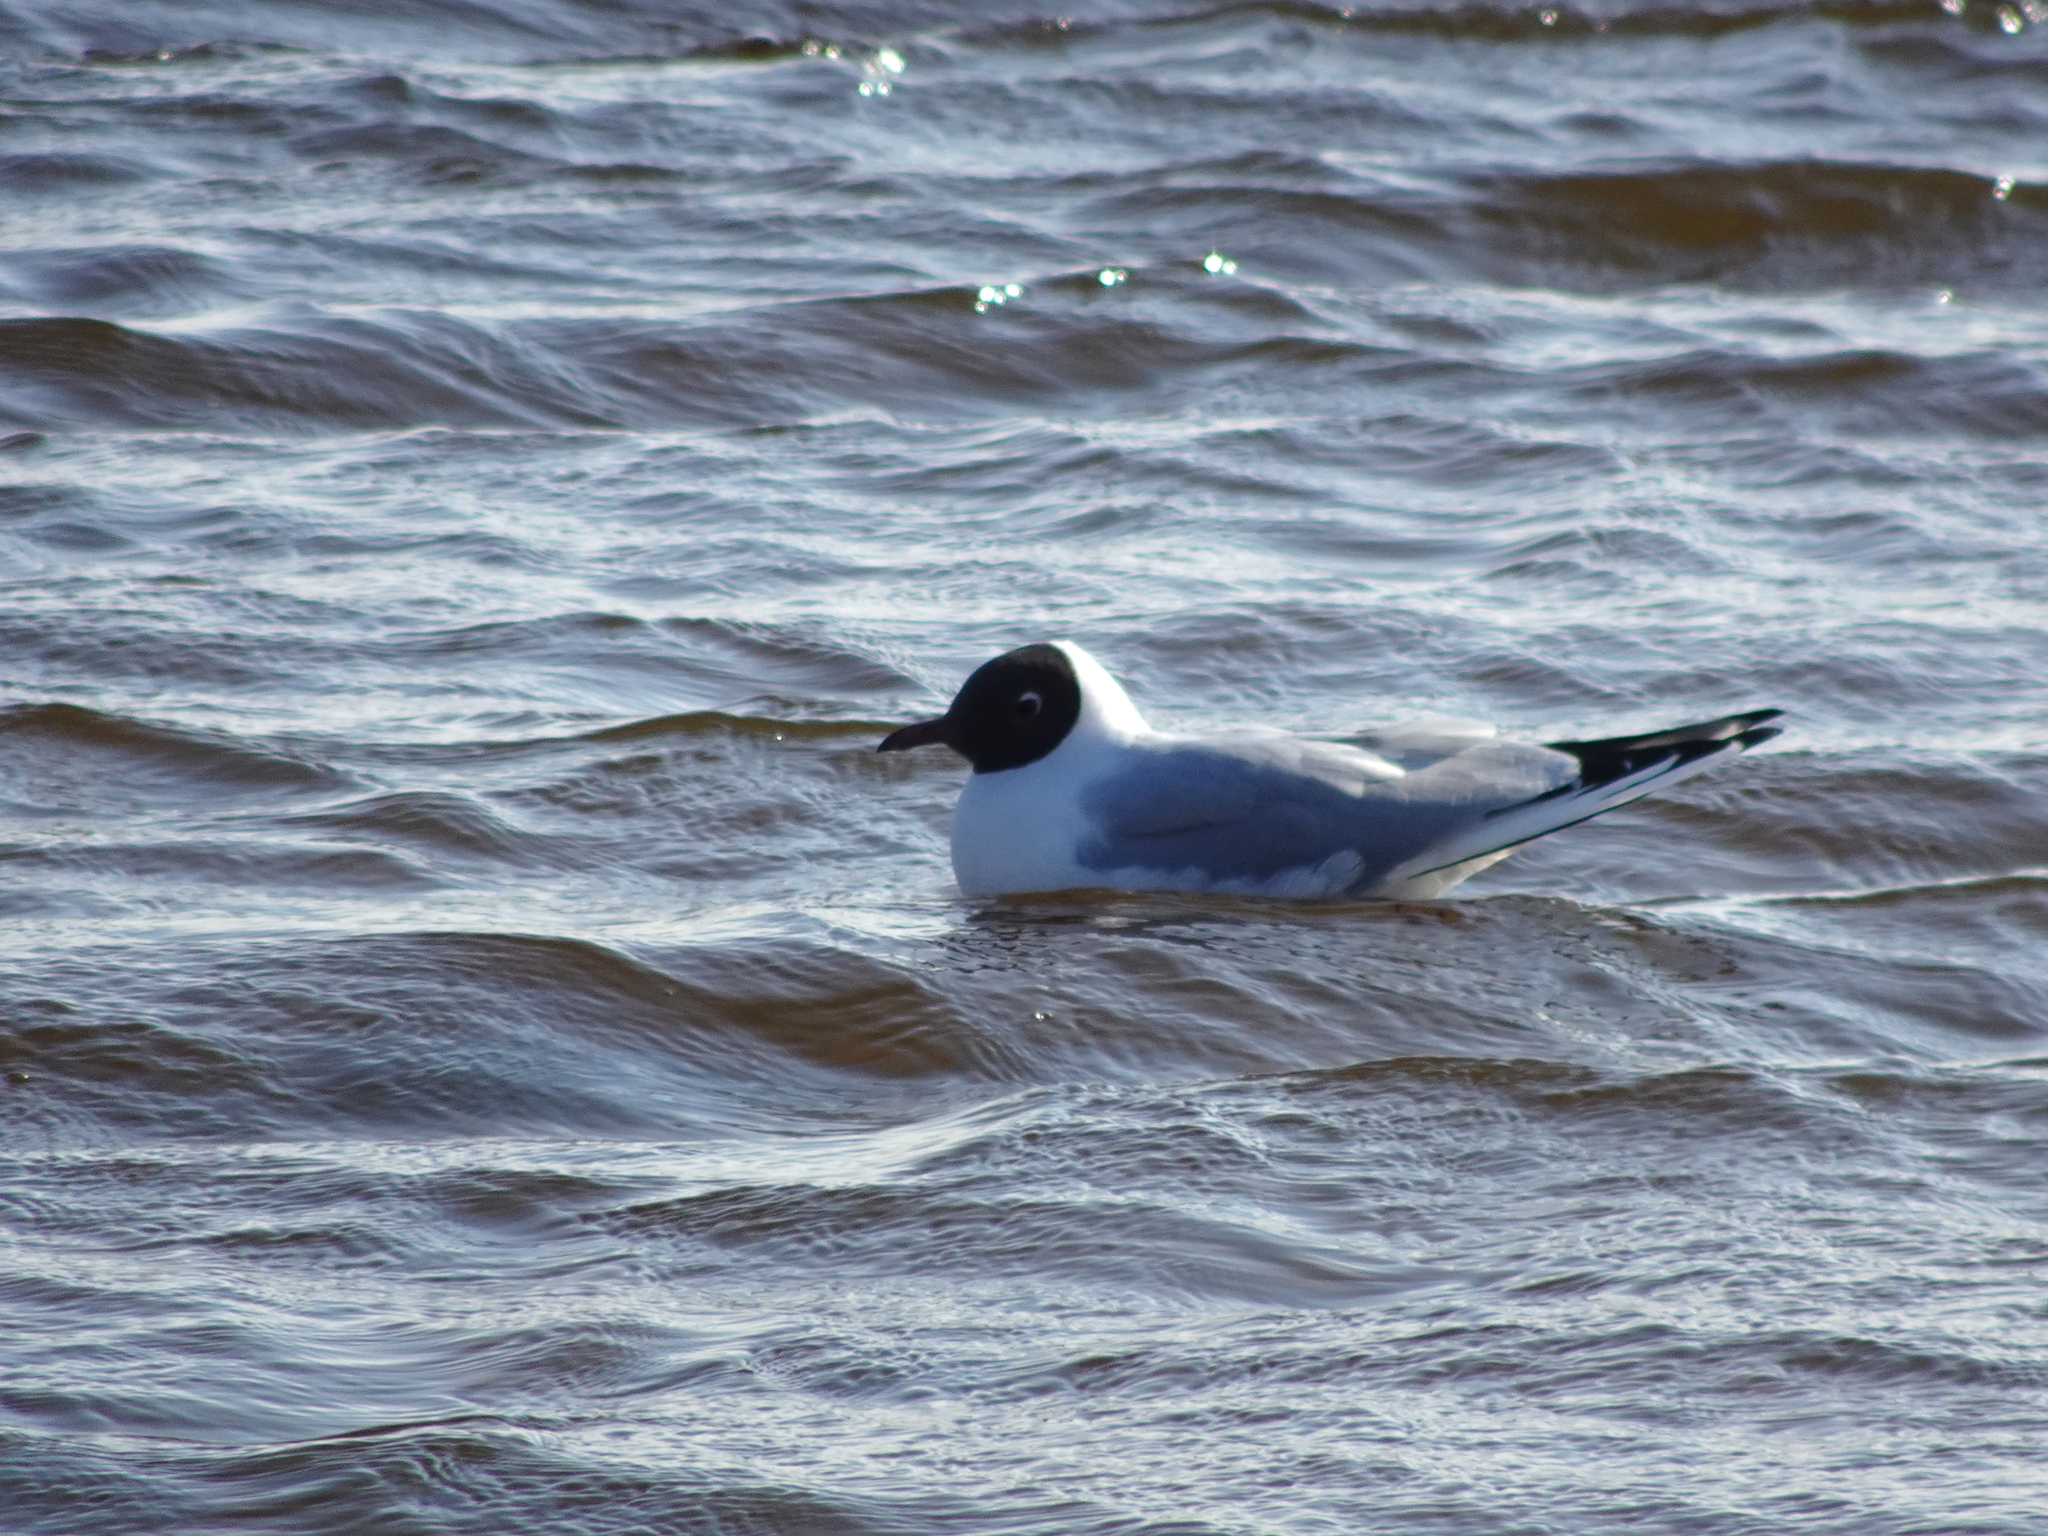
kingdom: Animalia
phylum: Chordata
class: Aves
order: Charadriiformes
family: Laridae
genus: Chroicocephalus
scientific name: Chroicocephalus ridibundus
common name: Black-headed gull
